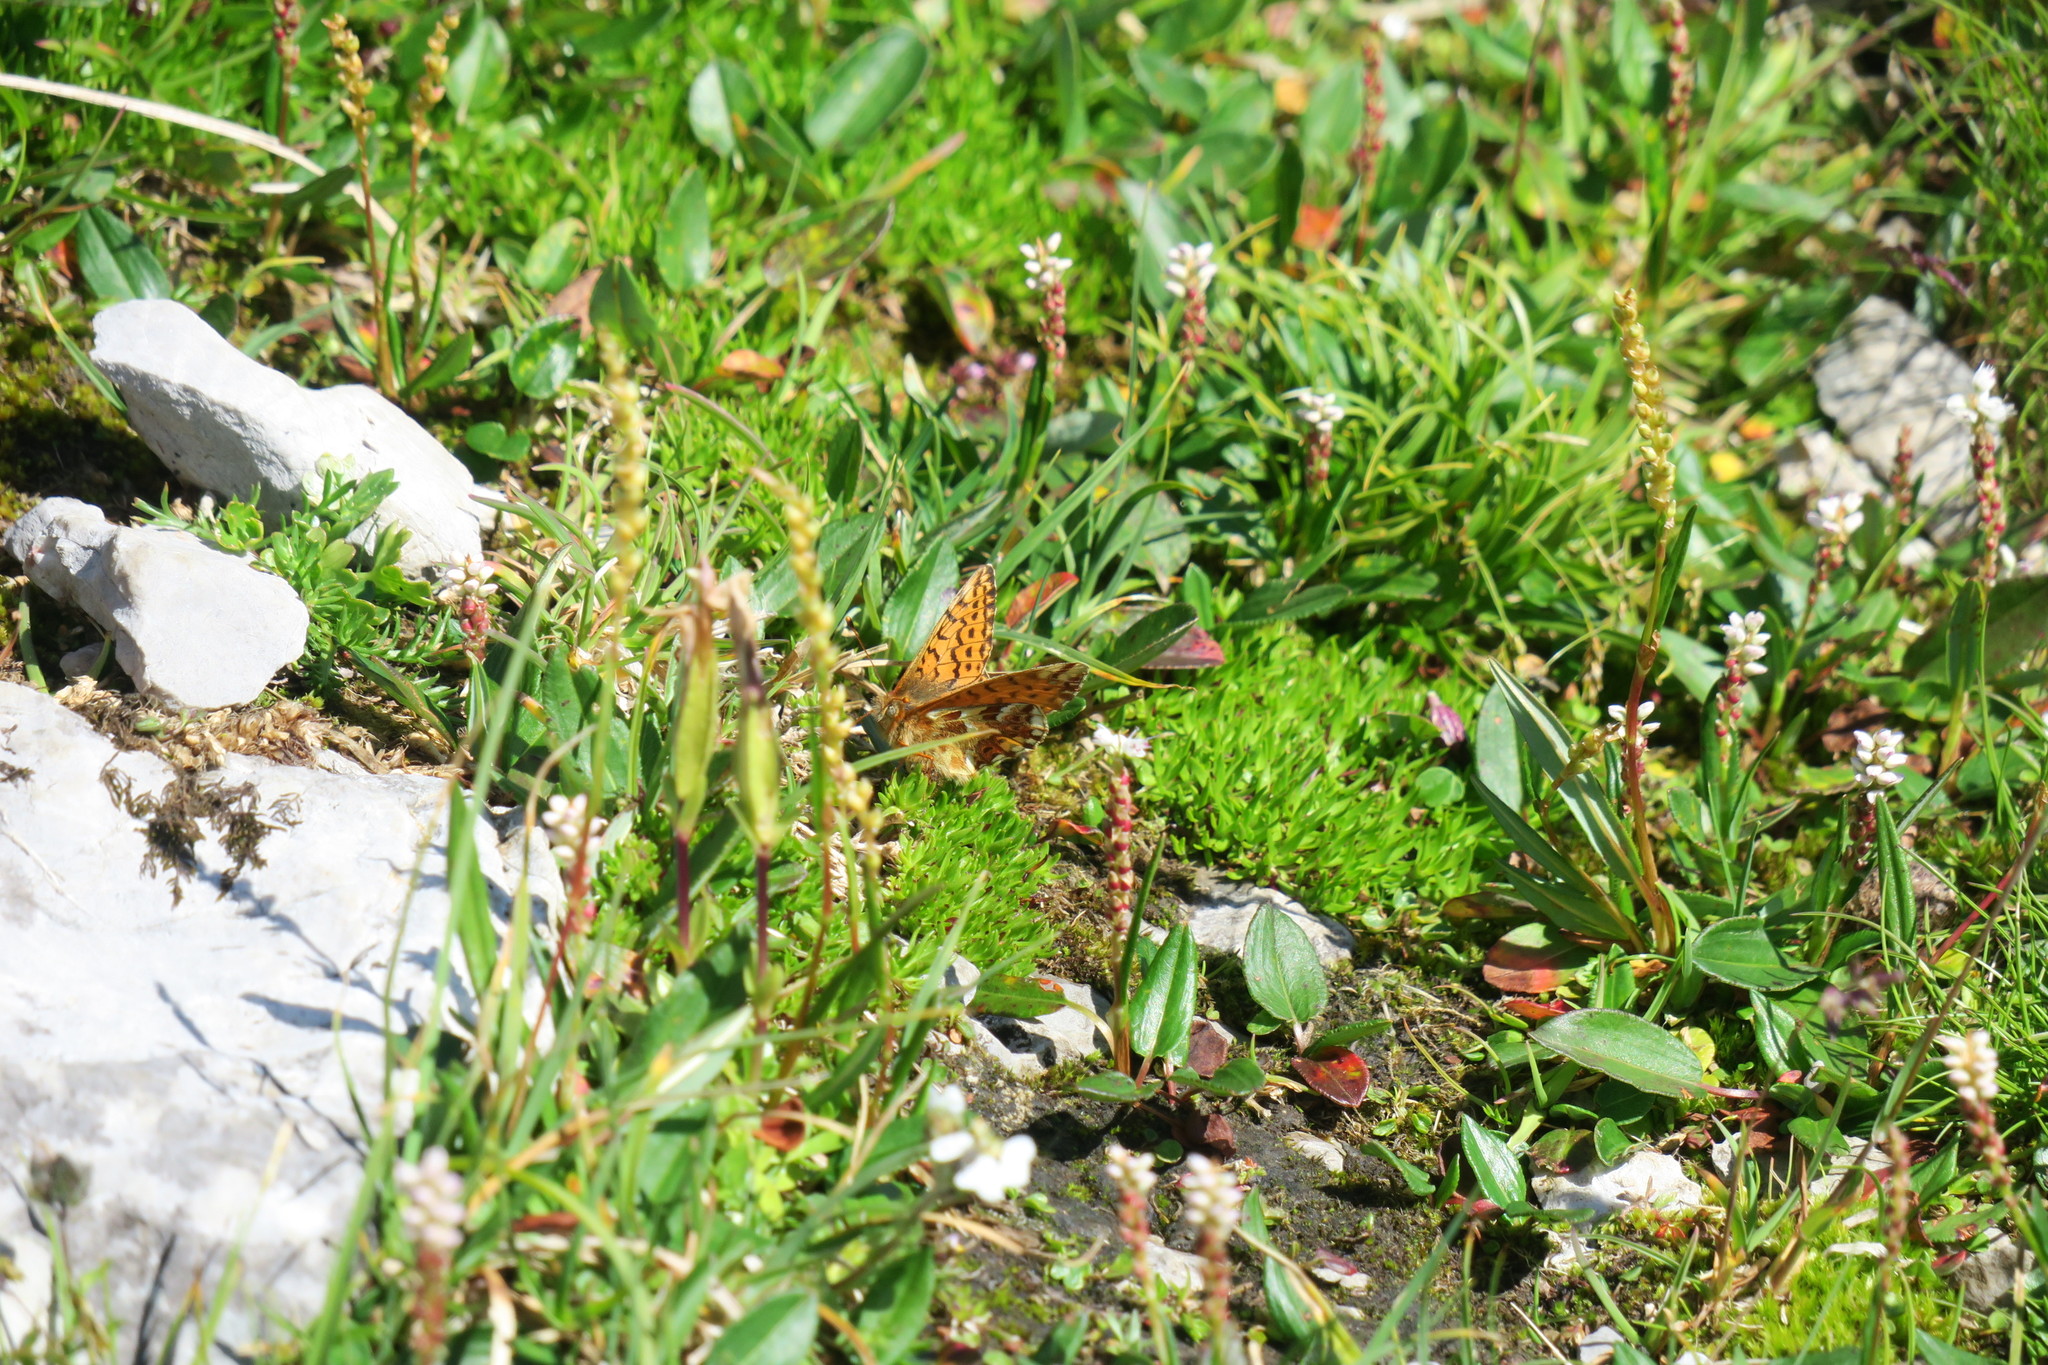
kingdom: Animalia
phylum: Arthropoda
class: Insecta
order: Lepidoptera
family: Nymphalidae
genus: Boloria
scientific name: Boloria pales
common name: Shepherd's fritillary
